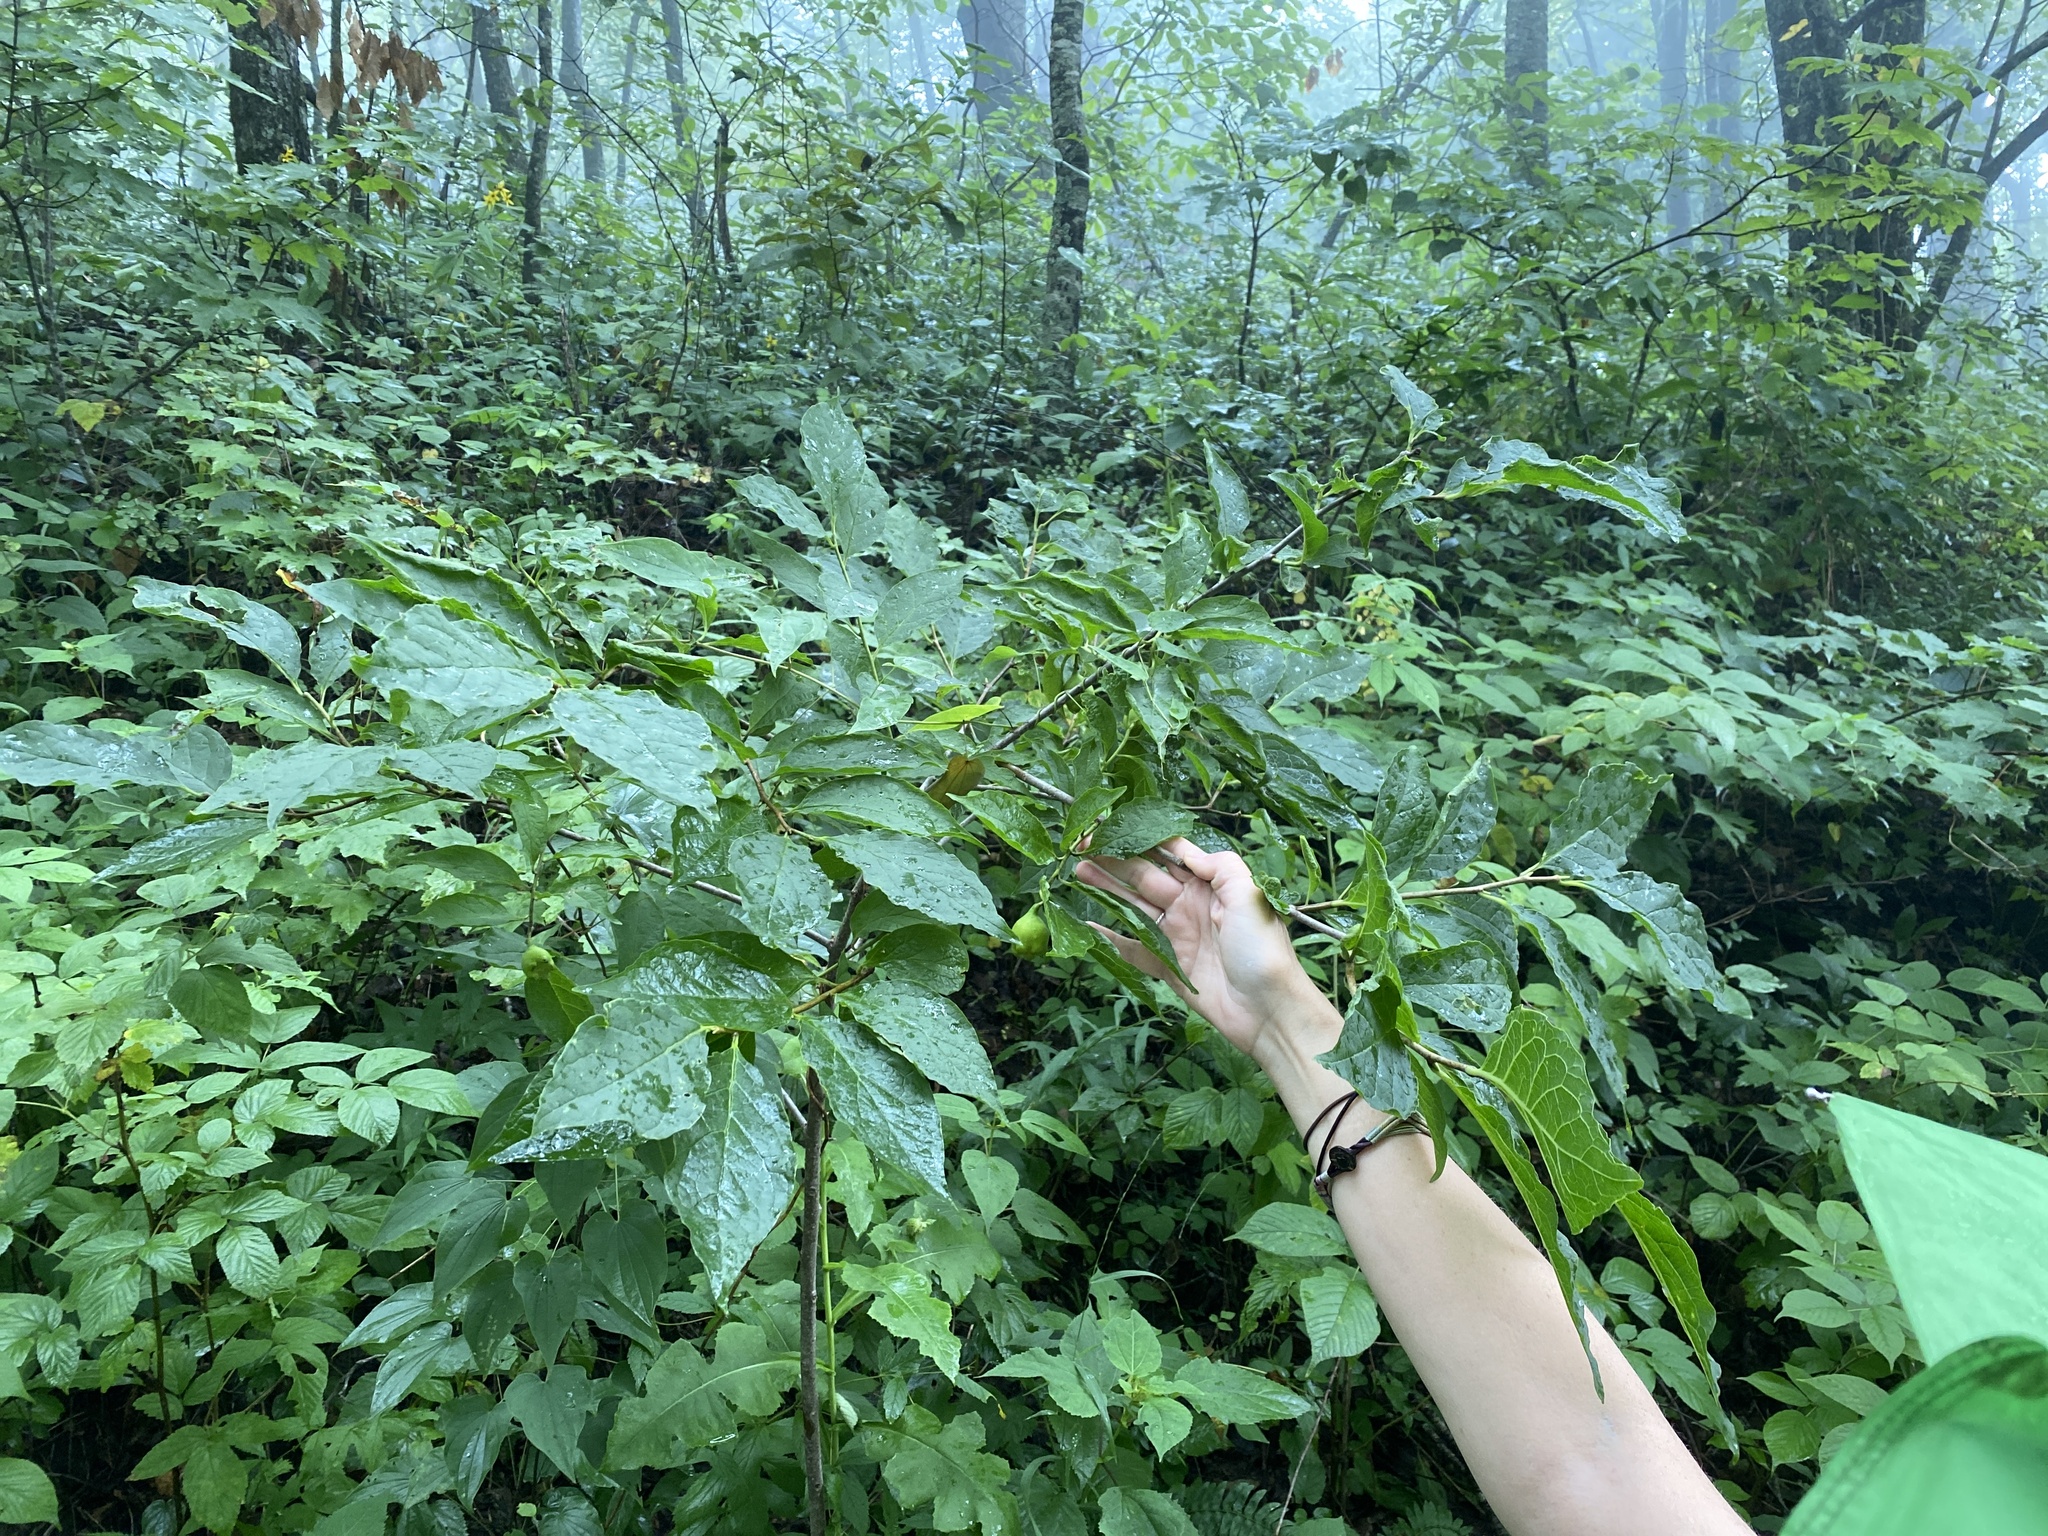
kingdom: Plantae
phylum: Tracheophyta
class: Magnoliopsida
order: Santalales
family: Cervantesiaceae
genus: Pyrularia
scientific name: Pyrularia pubera
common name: Oilnut
